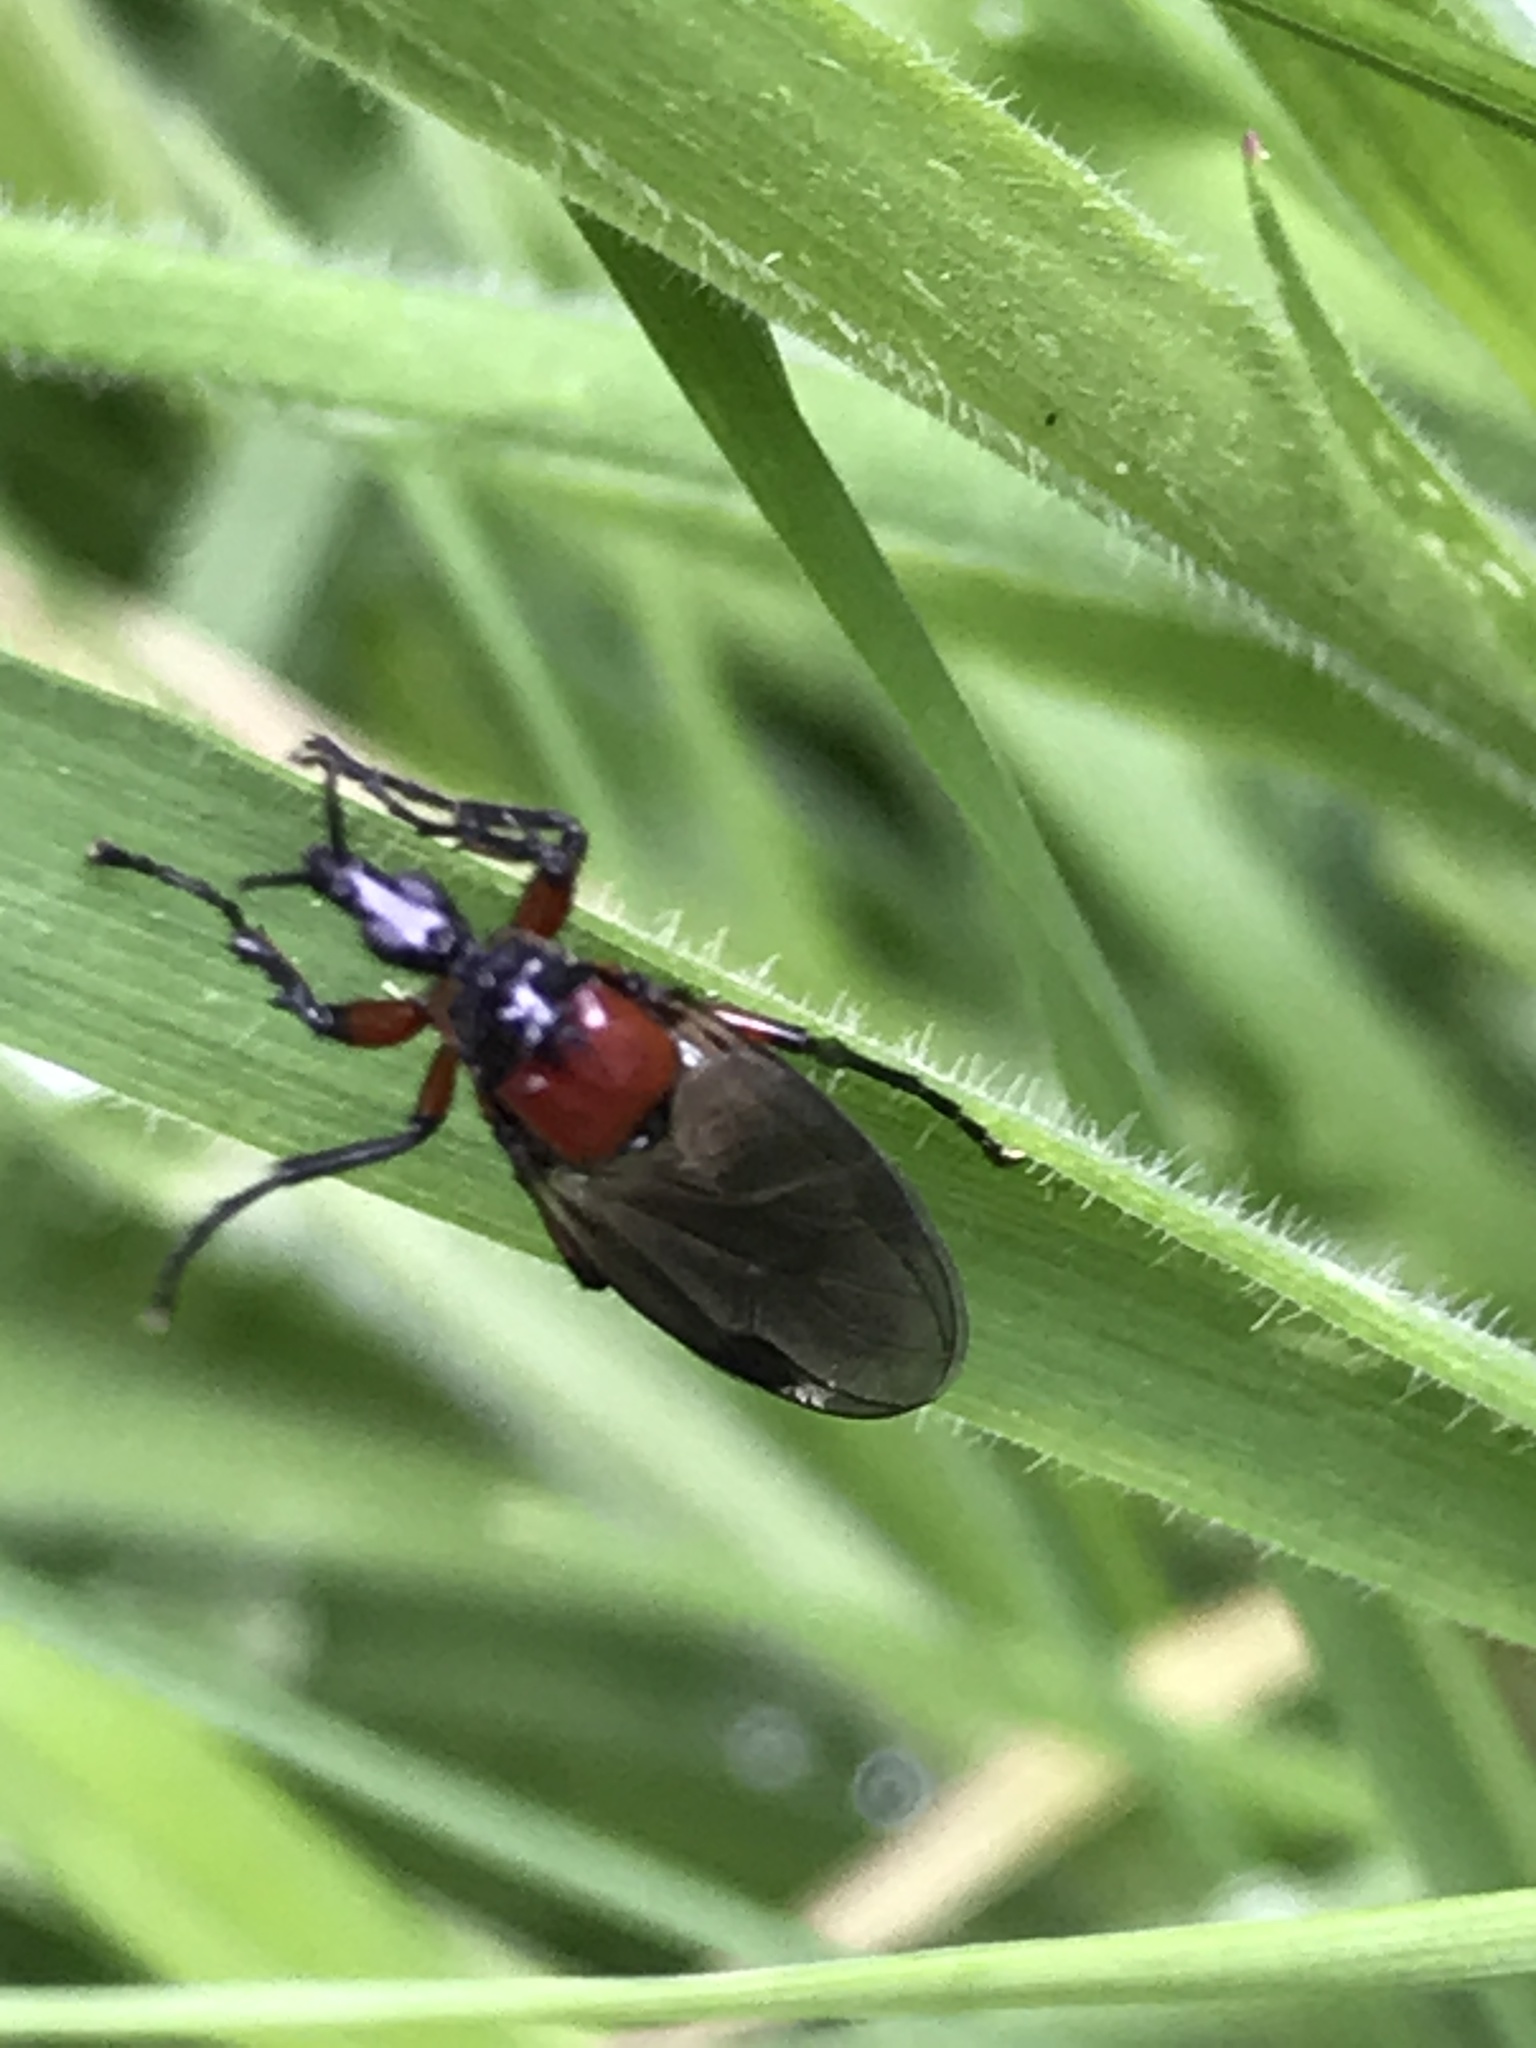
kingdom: Animalia
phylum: Arthropoda
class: Insecta
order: Diptera
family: Bibionidae
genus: Dilophus
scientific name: Dilophus nigrostigma
